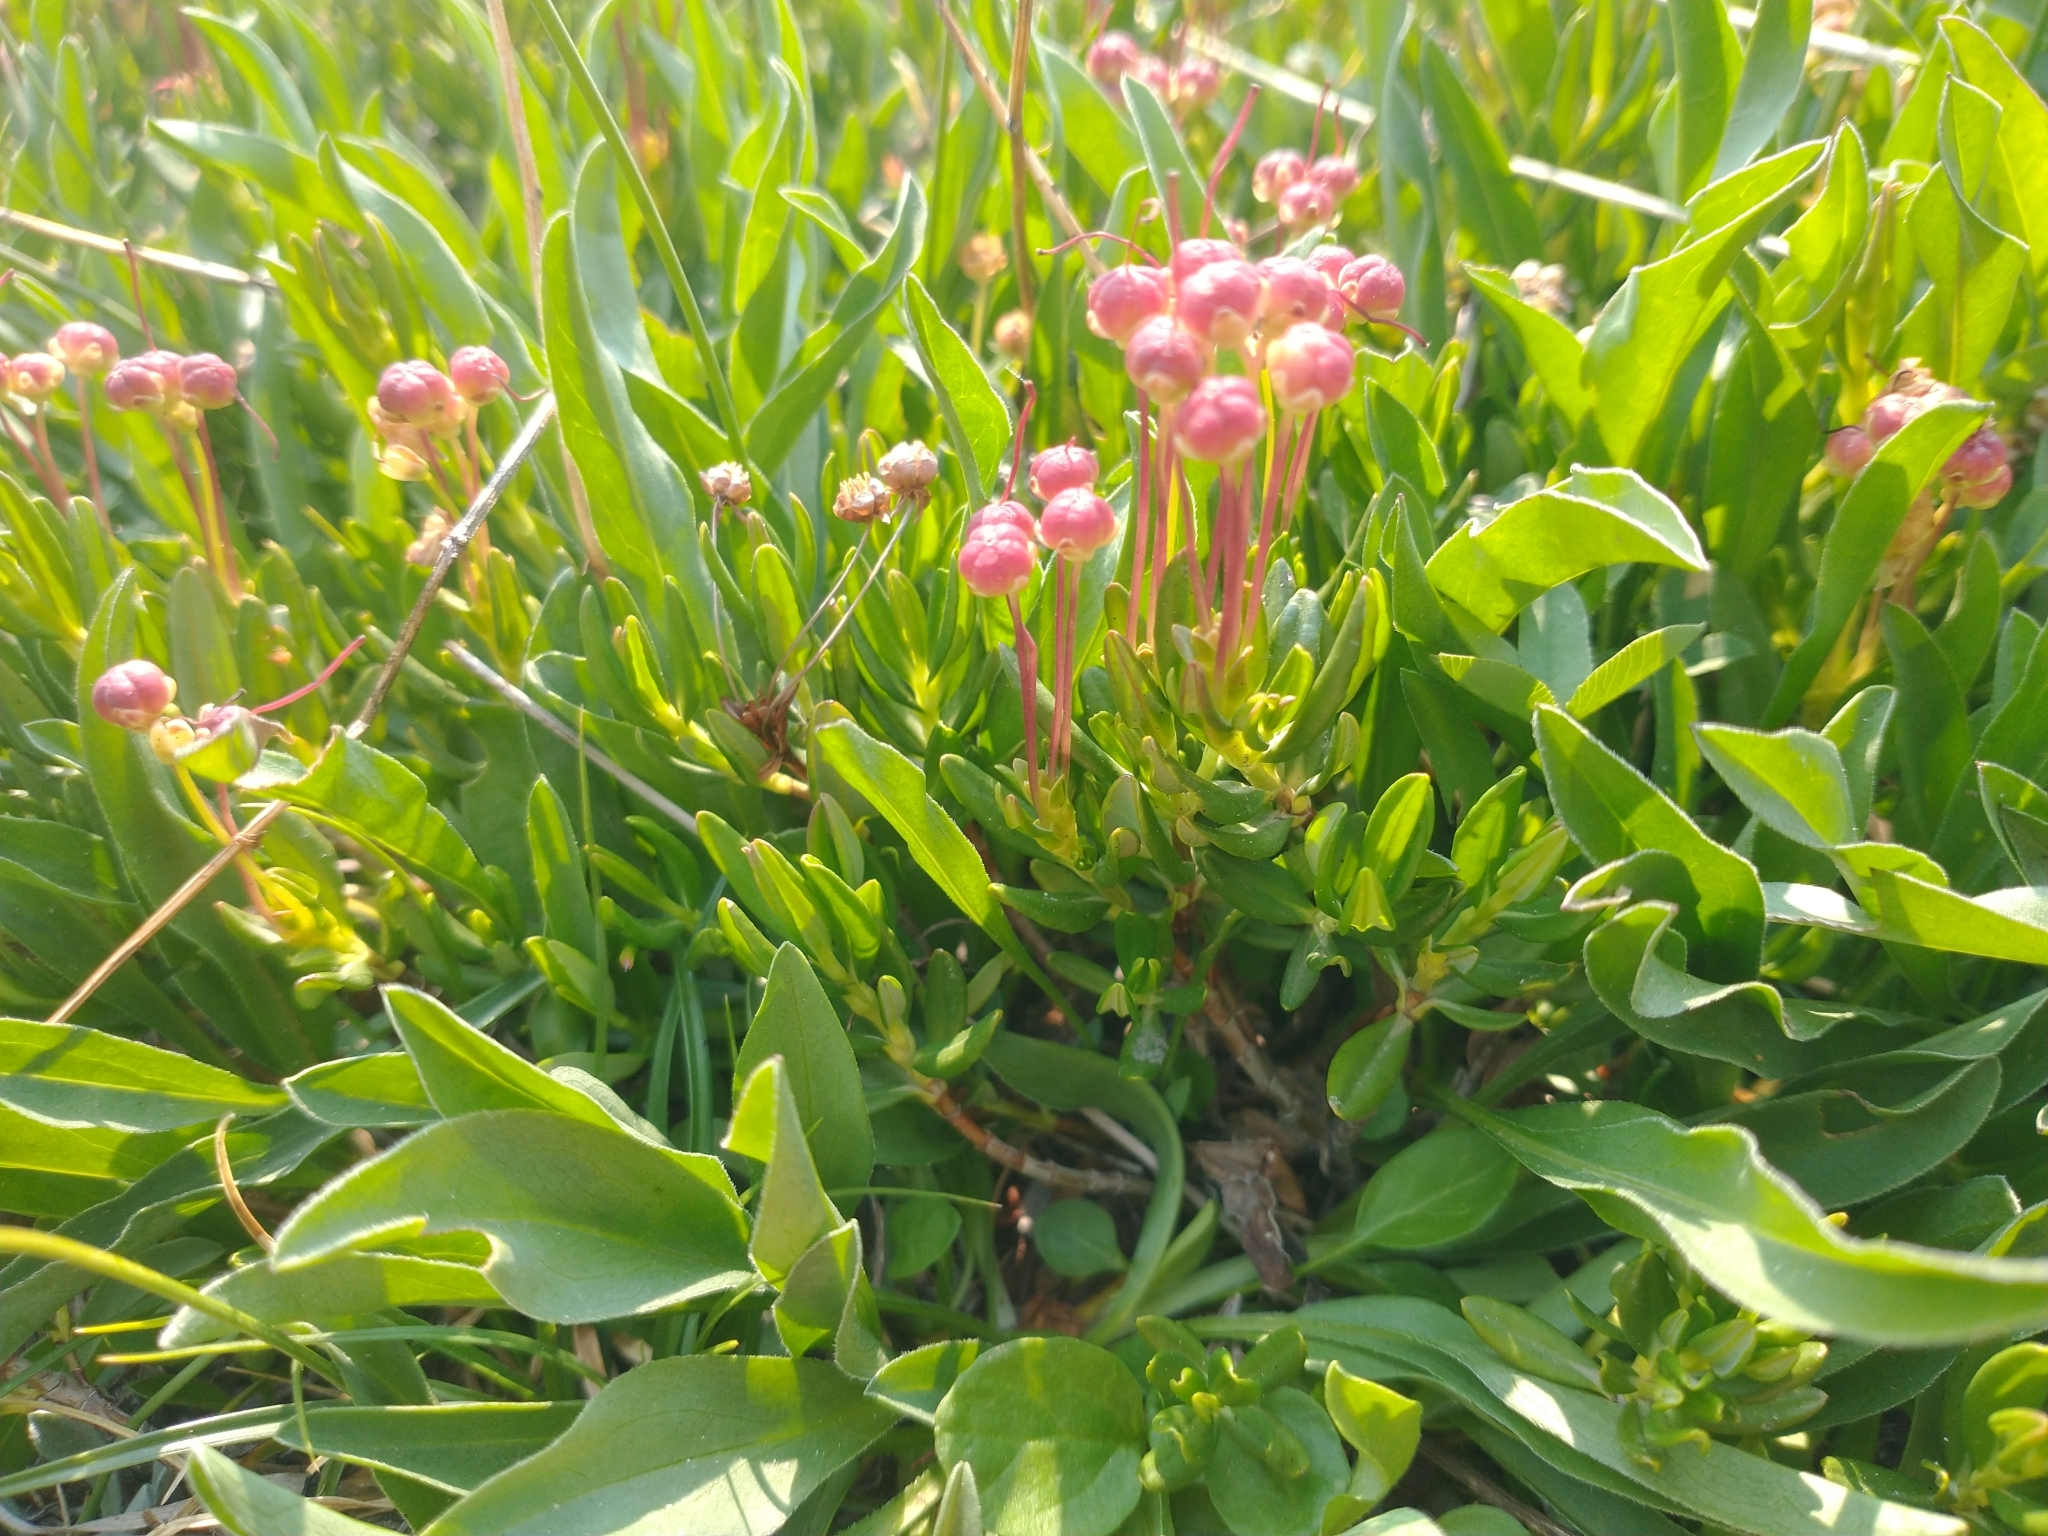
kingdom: Plantae
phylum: Tracheophyta
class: Magnoliopsida
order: Ericales
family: Ericaceae
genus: Kalmia
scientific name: Kalmia microphylla
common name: Alpine bog laurel
